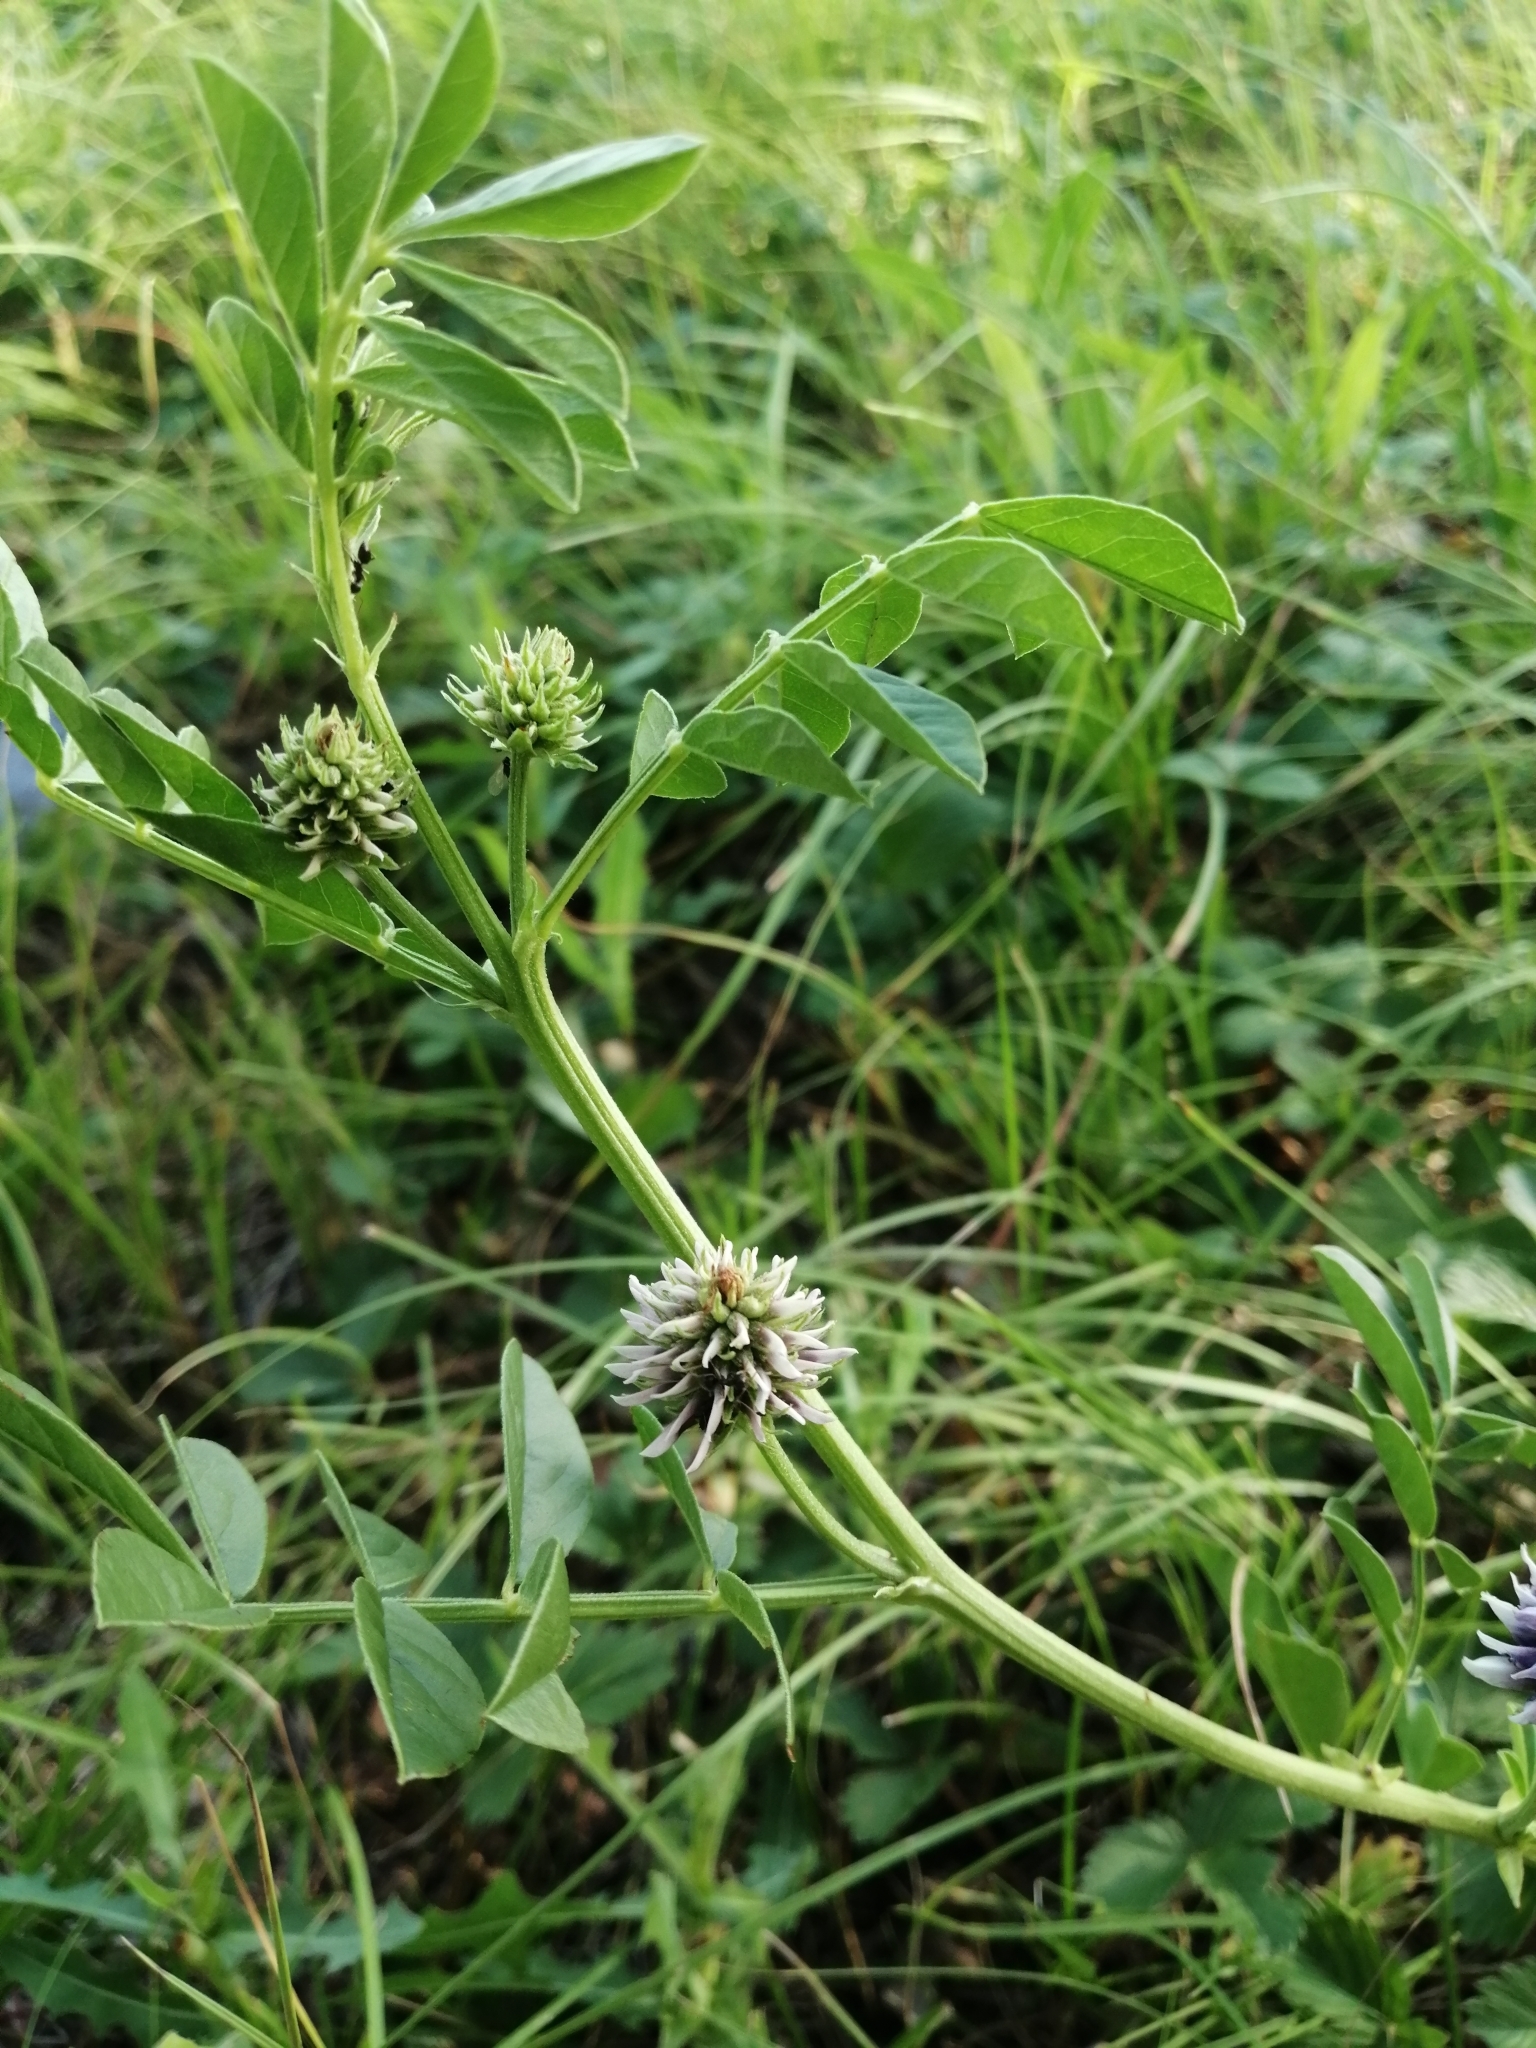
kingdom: Plantae
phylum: Tracheophyta
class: Magnoliopsida
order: Fabales
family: Fabaceae
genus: Glycyrrhiza
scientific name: Glycyrrhiza echinata
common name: German liquorice
